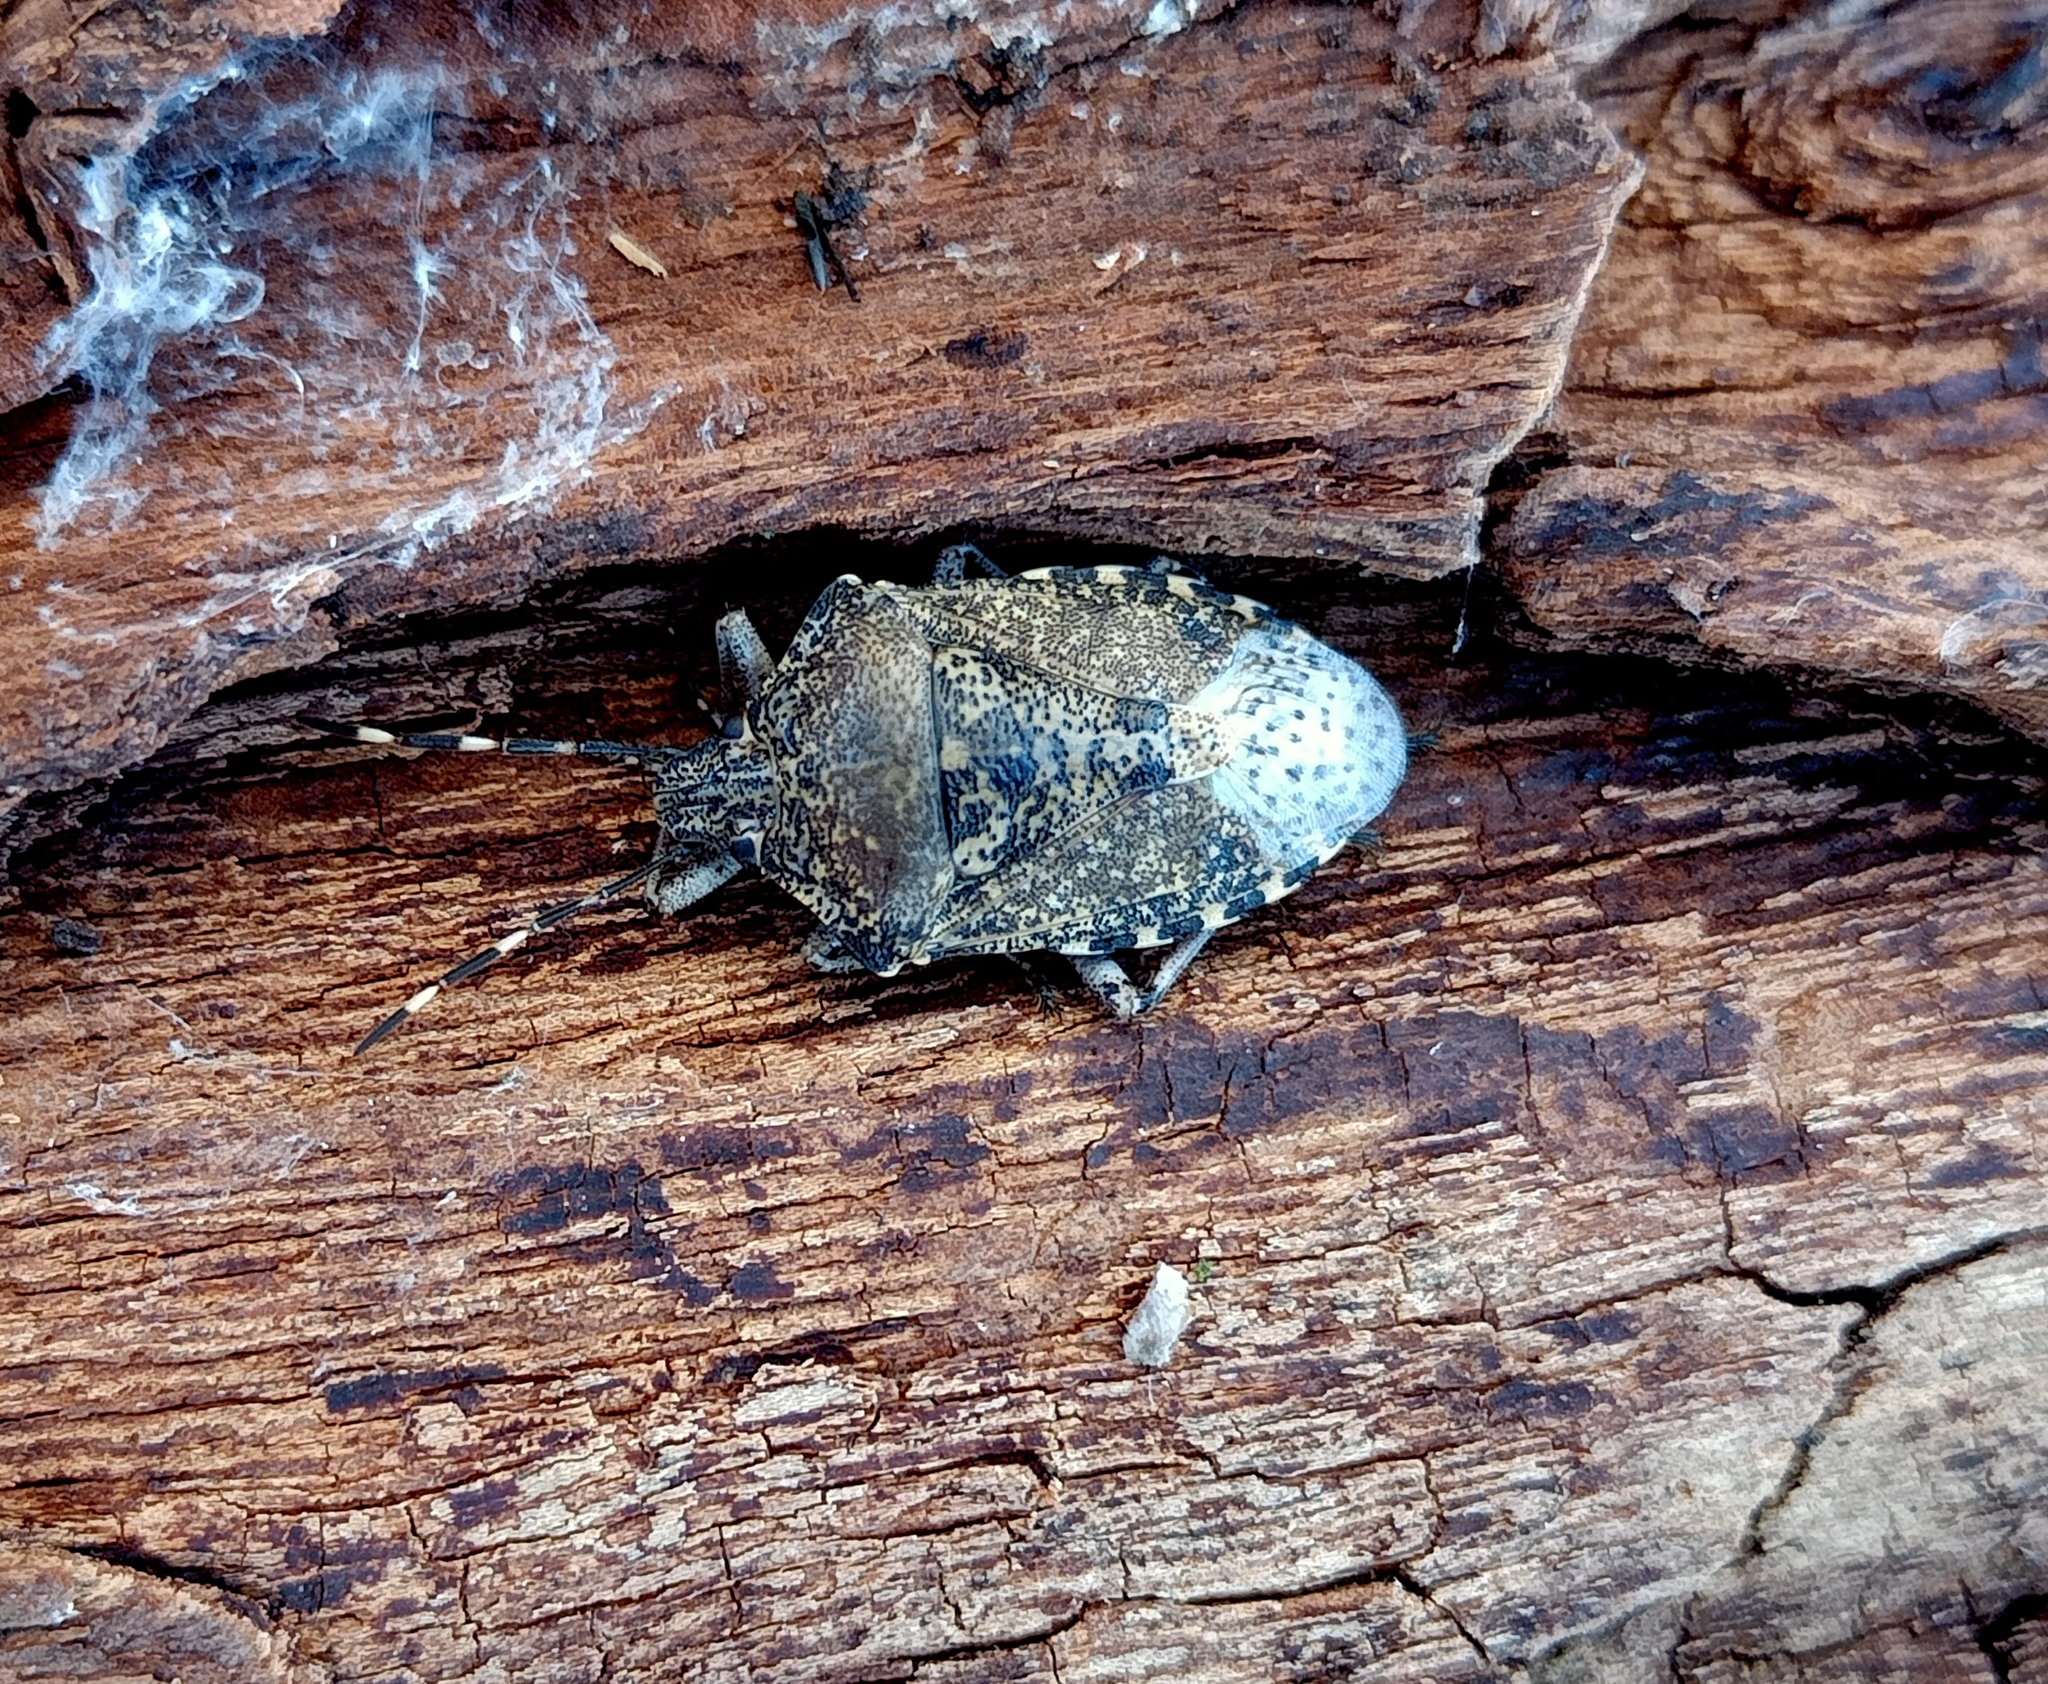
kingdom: Animalia
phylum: Arthropoda
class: Insecta
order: Hemiptera
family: Pentatomidae
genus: Rhaphigaster
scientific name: Rhaphigaster nebulosa
